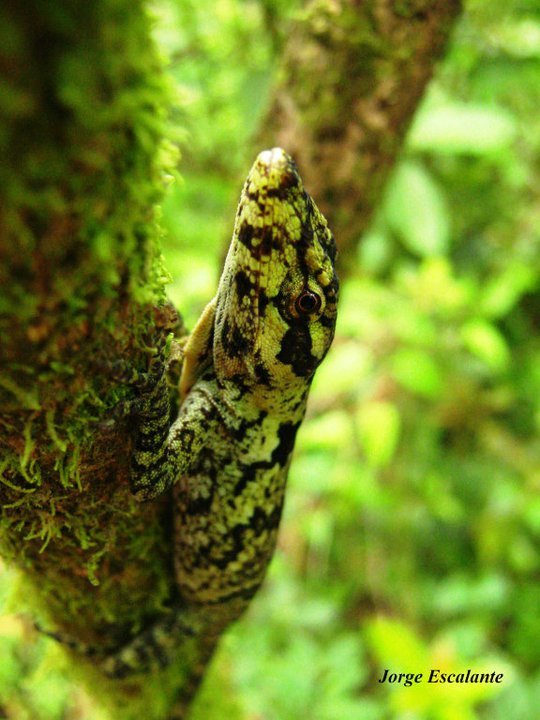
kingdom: Animalia
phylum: Chordata
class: Squamata
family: Dactyloidae
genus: Anolis
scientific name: Anolis petersii
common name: Peters' anole
